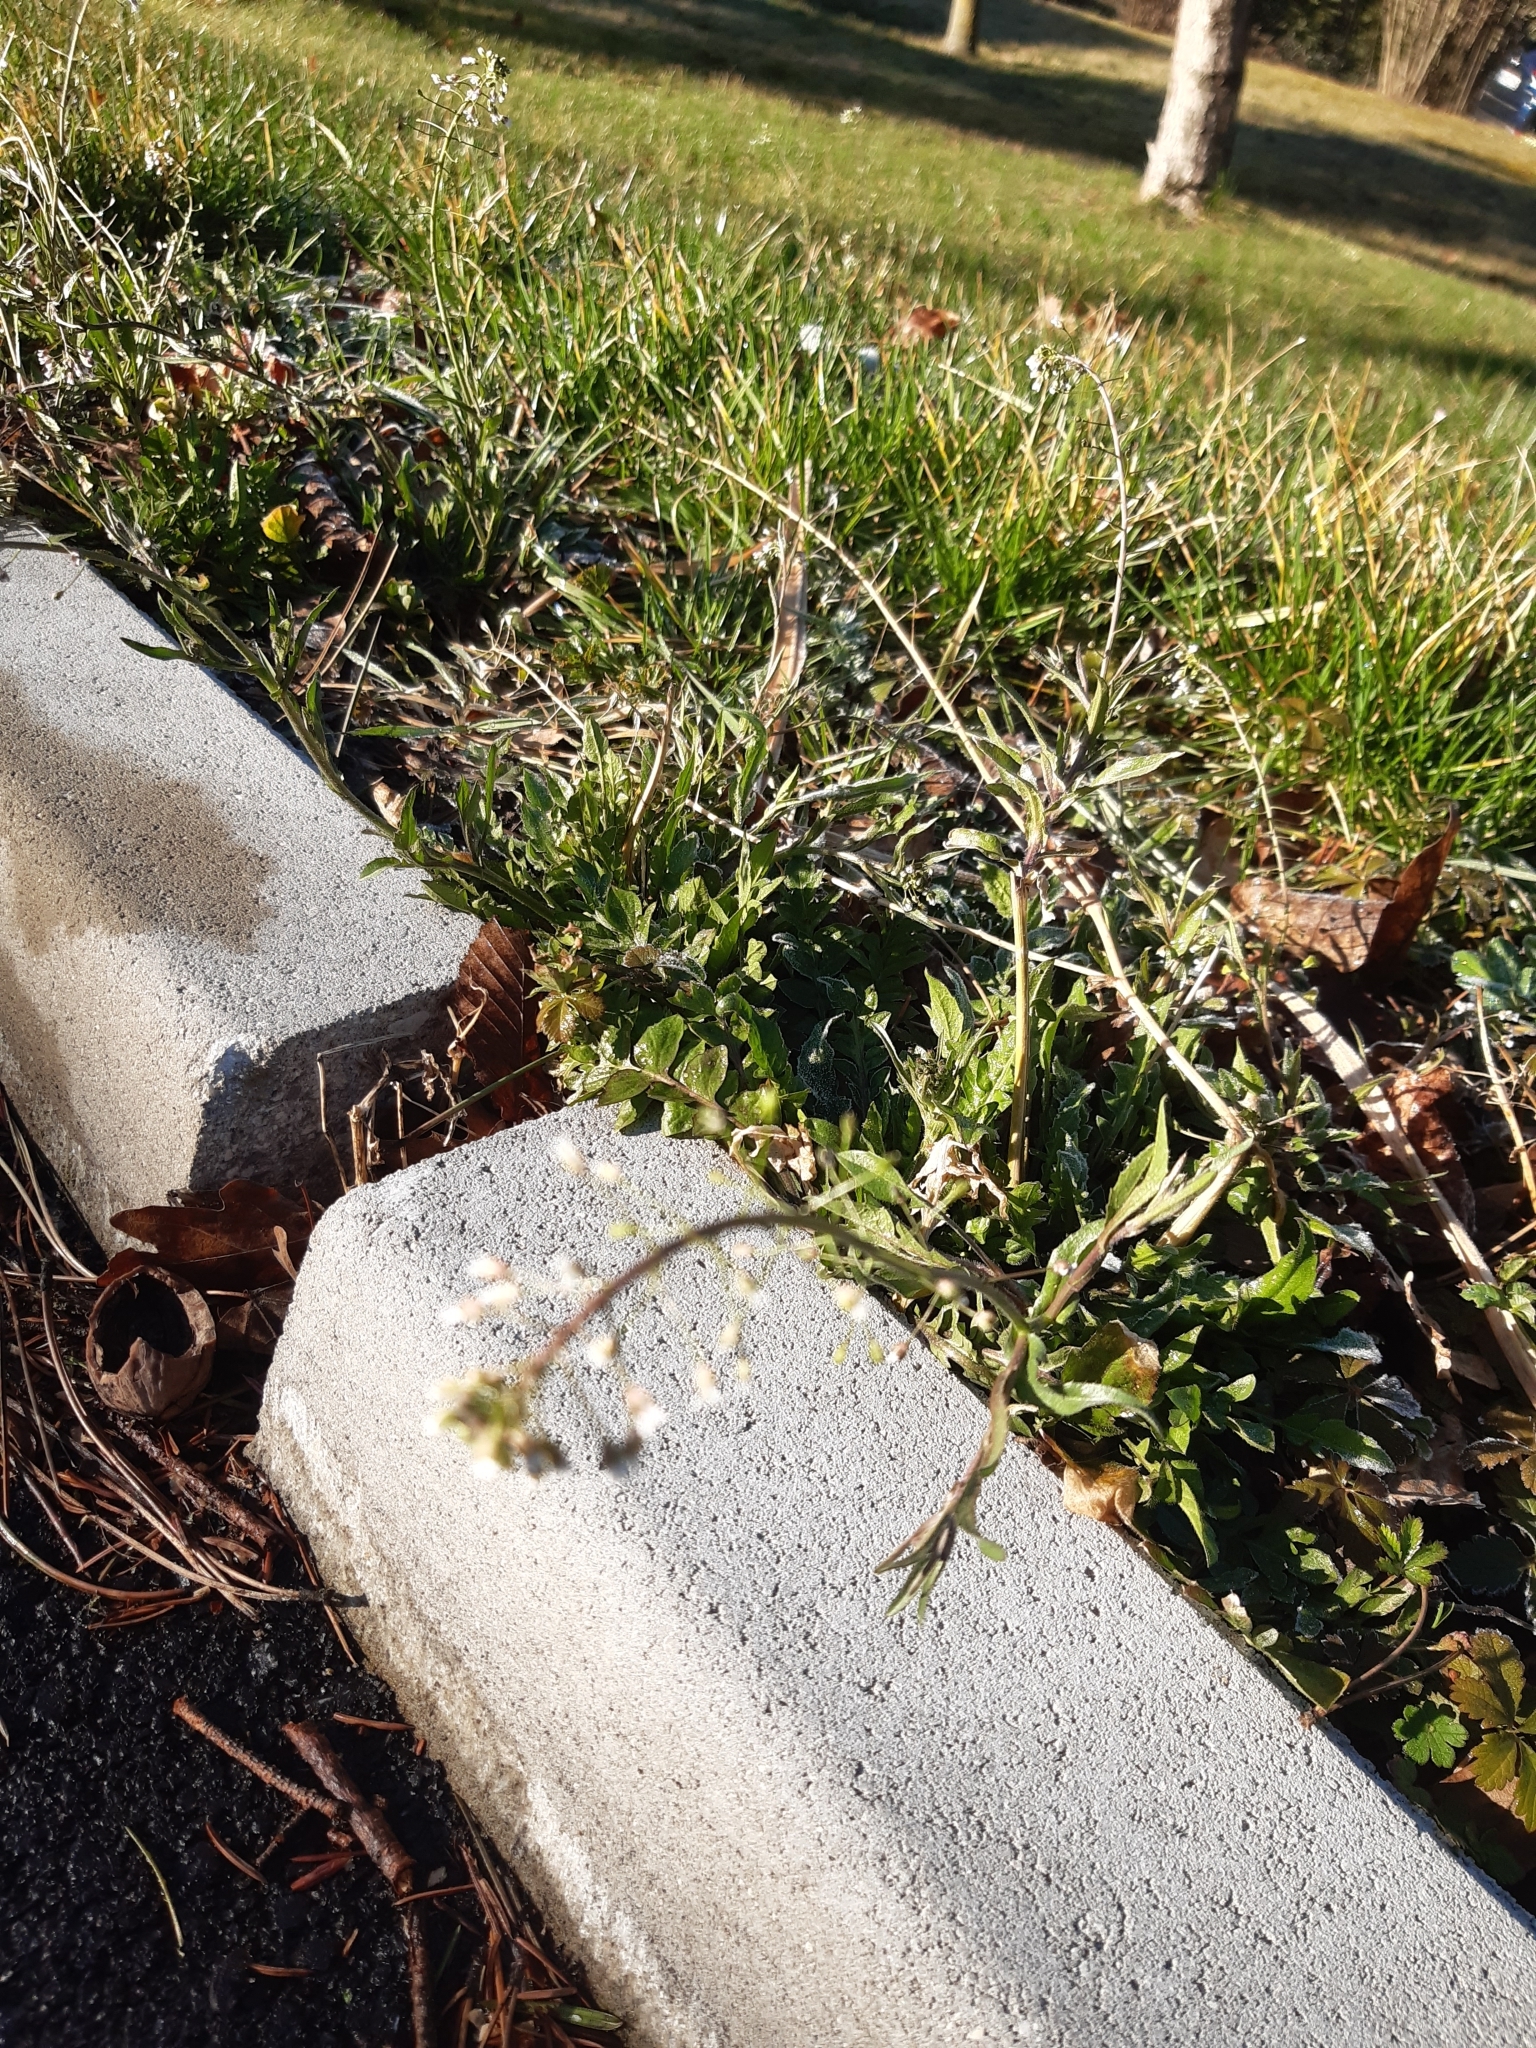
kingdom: Plantae
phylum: Tracheophyta
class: Magnoliopsida
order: Brassicales
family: Brassicaceae
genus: Capsella
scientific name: Capsella bursa-pastoris
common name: Shepherd's purse
